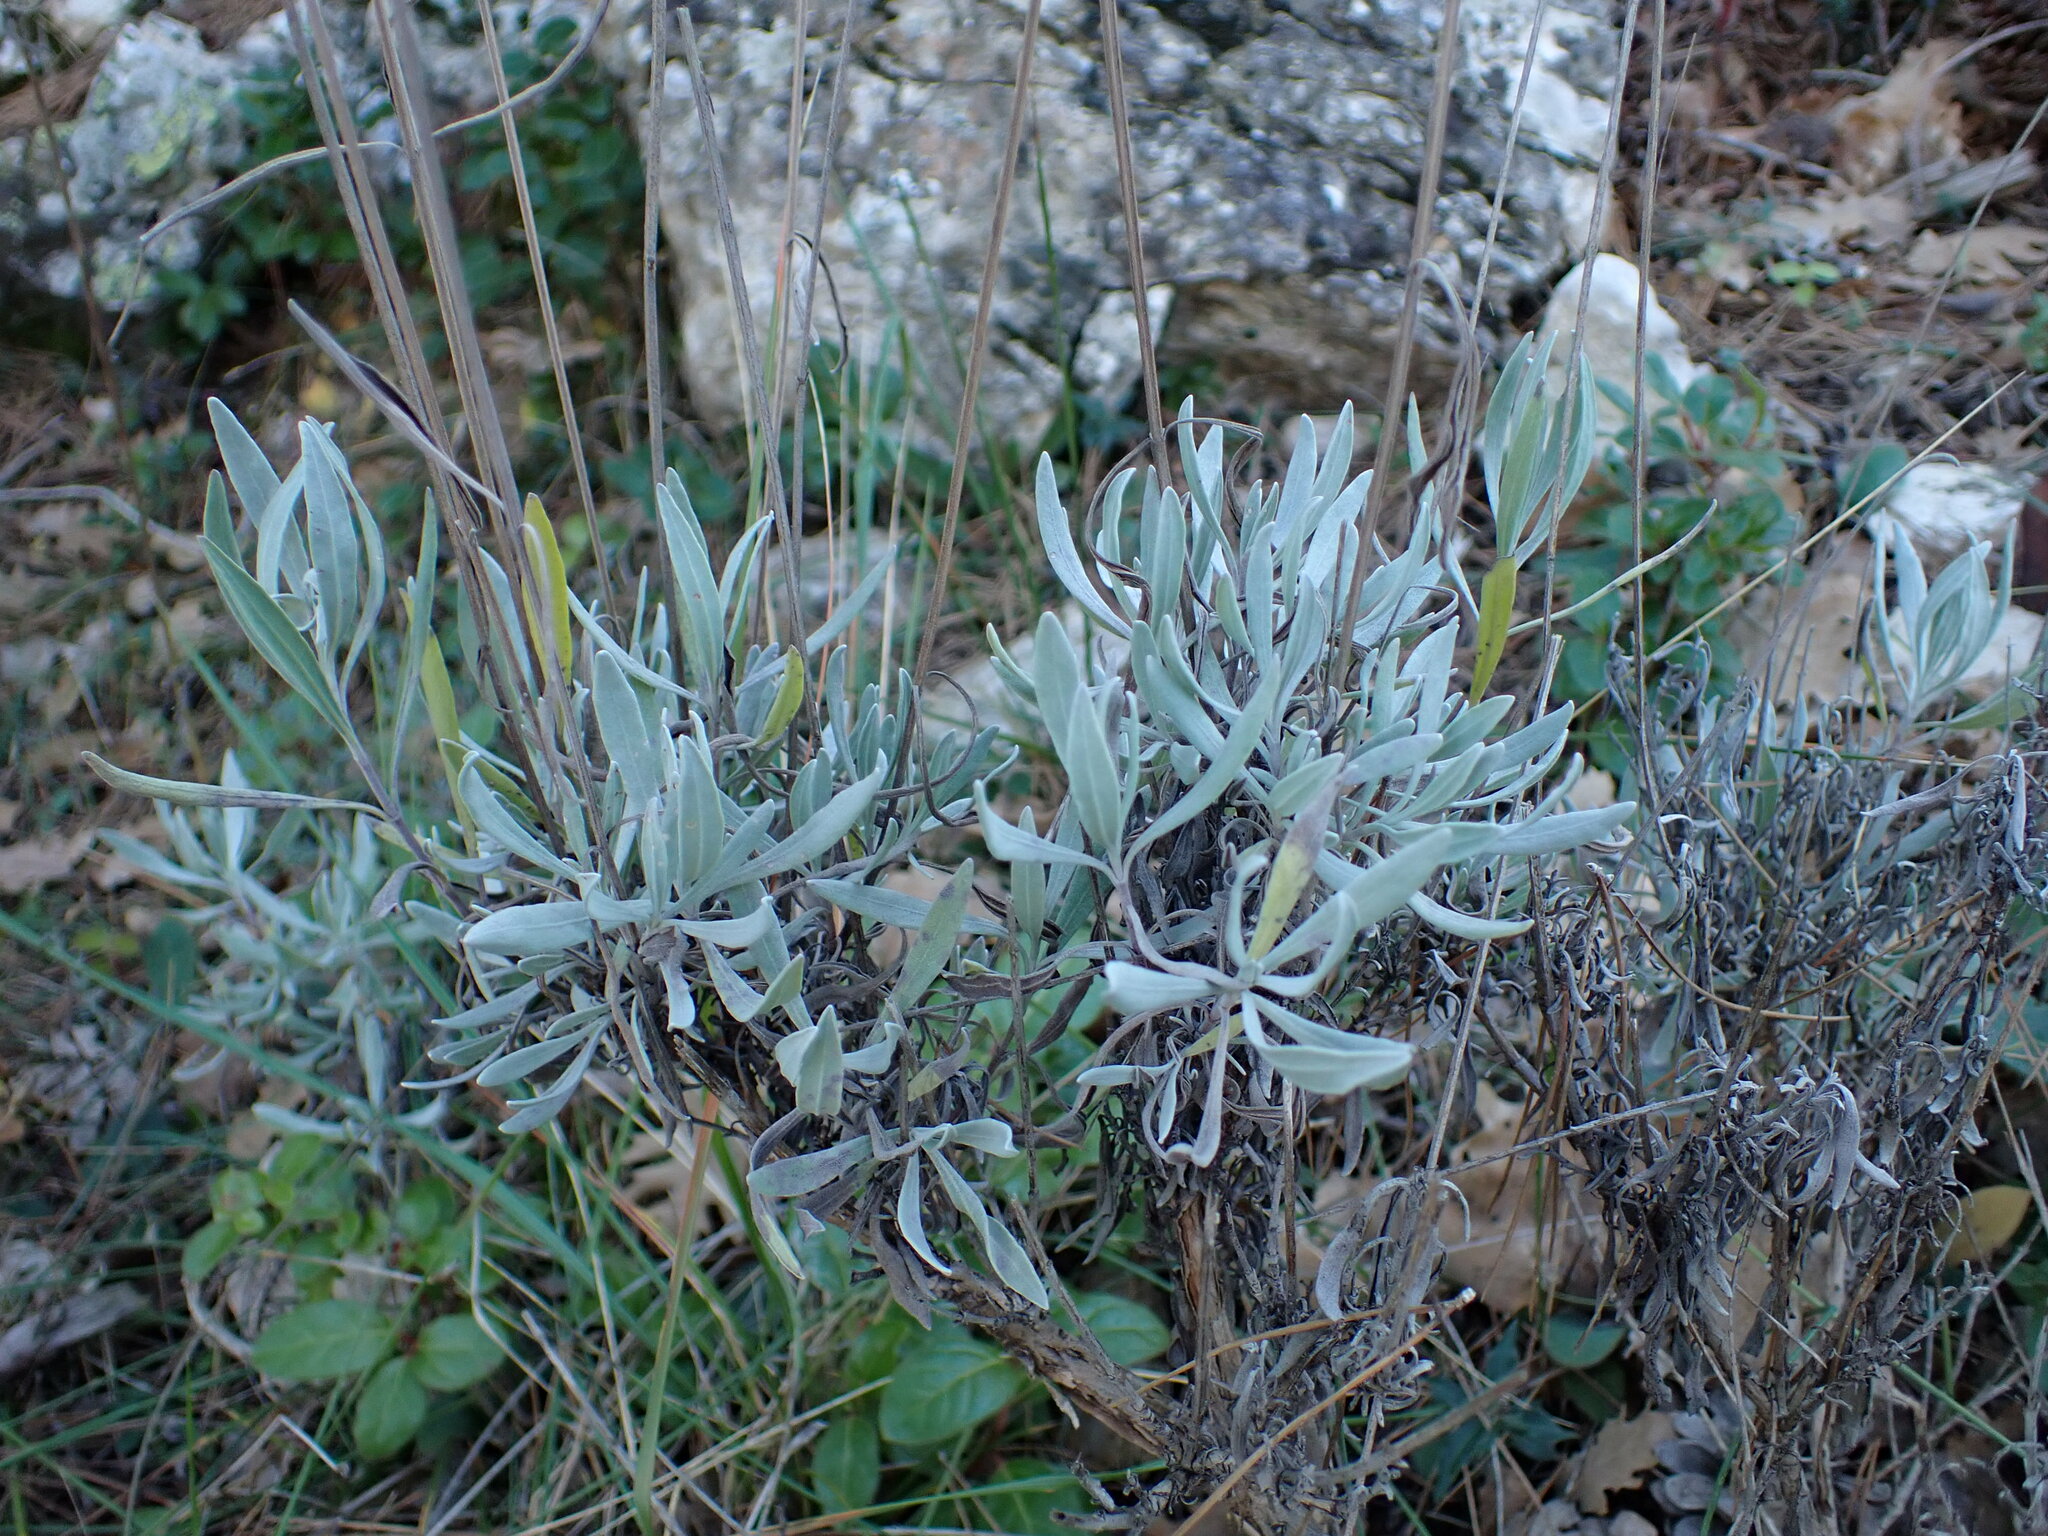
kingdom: Plantae
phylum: Tracheophyta
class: Magnoliopsida
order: Lamiales
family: Lamiaceae
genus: Lavandula
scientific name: Lavandula latifolia
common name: Spike lavendar
